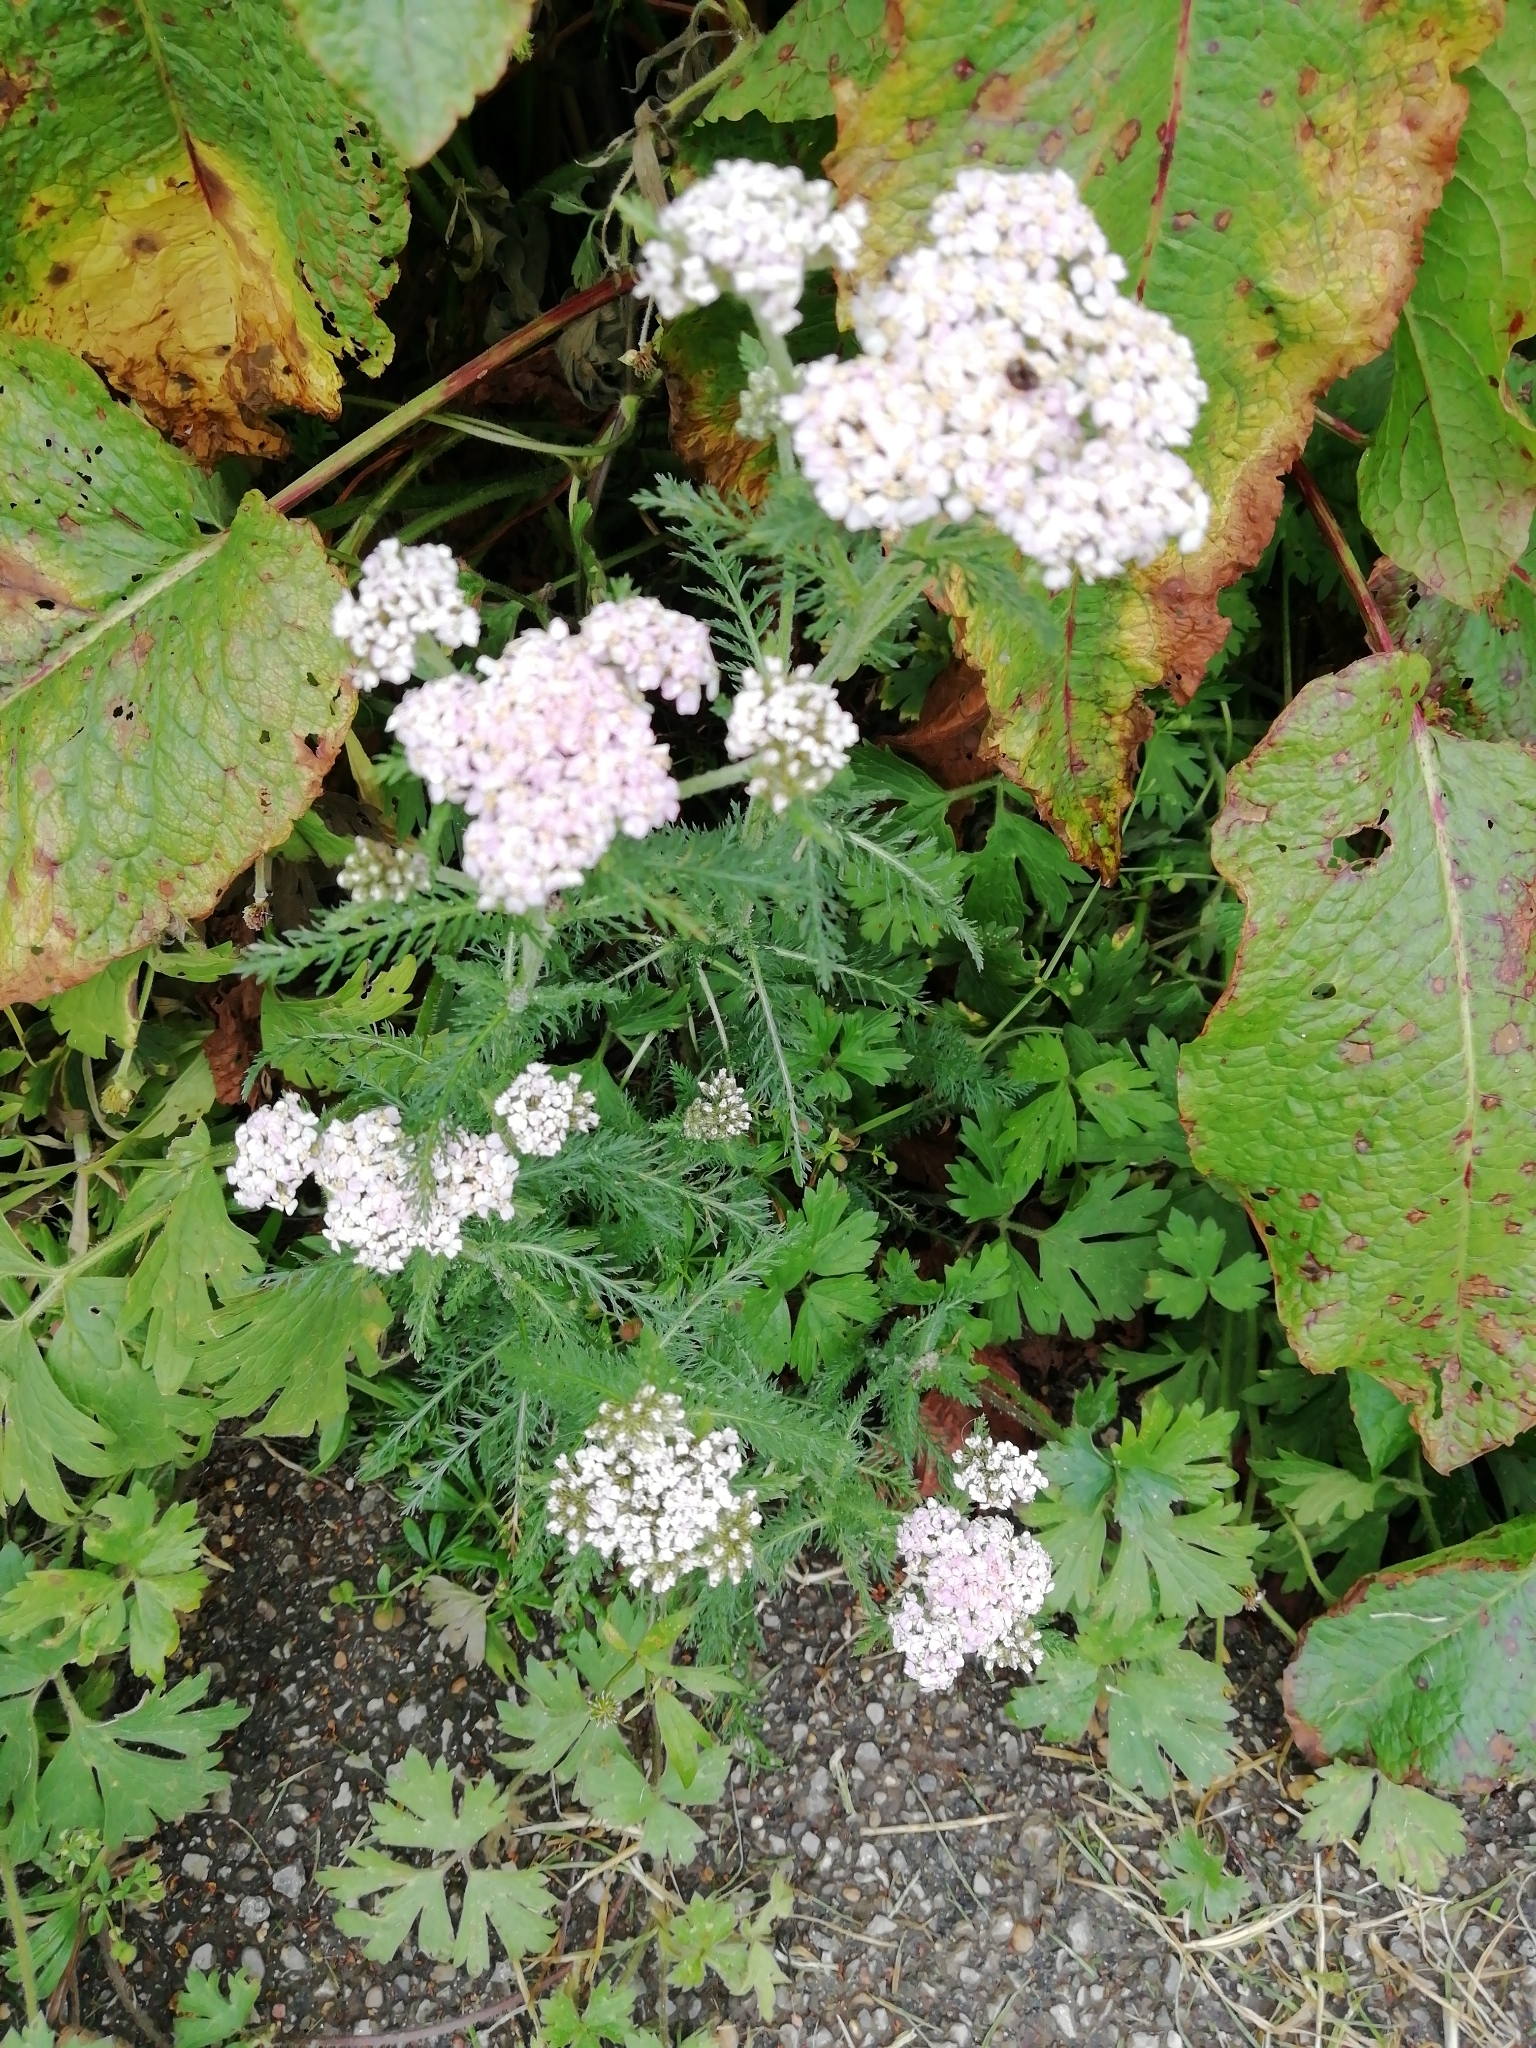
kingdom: Plantae
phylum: Tracheophyta
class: Magnoliopsida
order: Asterales
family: Asteraceae
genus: Achillea
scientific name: Achillea millefolium
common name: Yarrow
